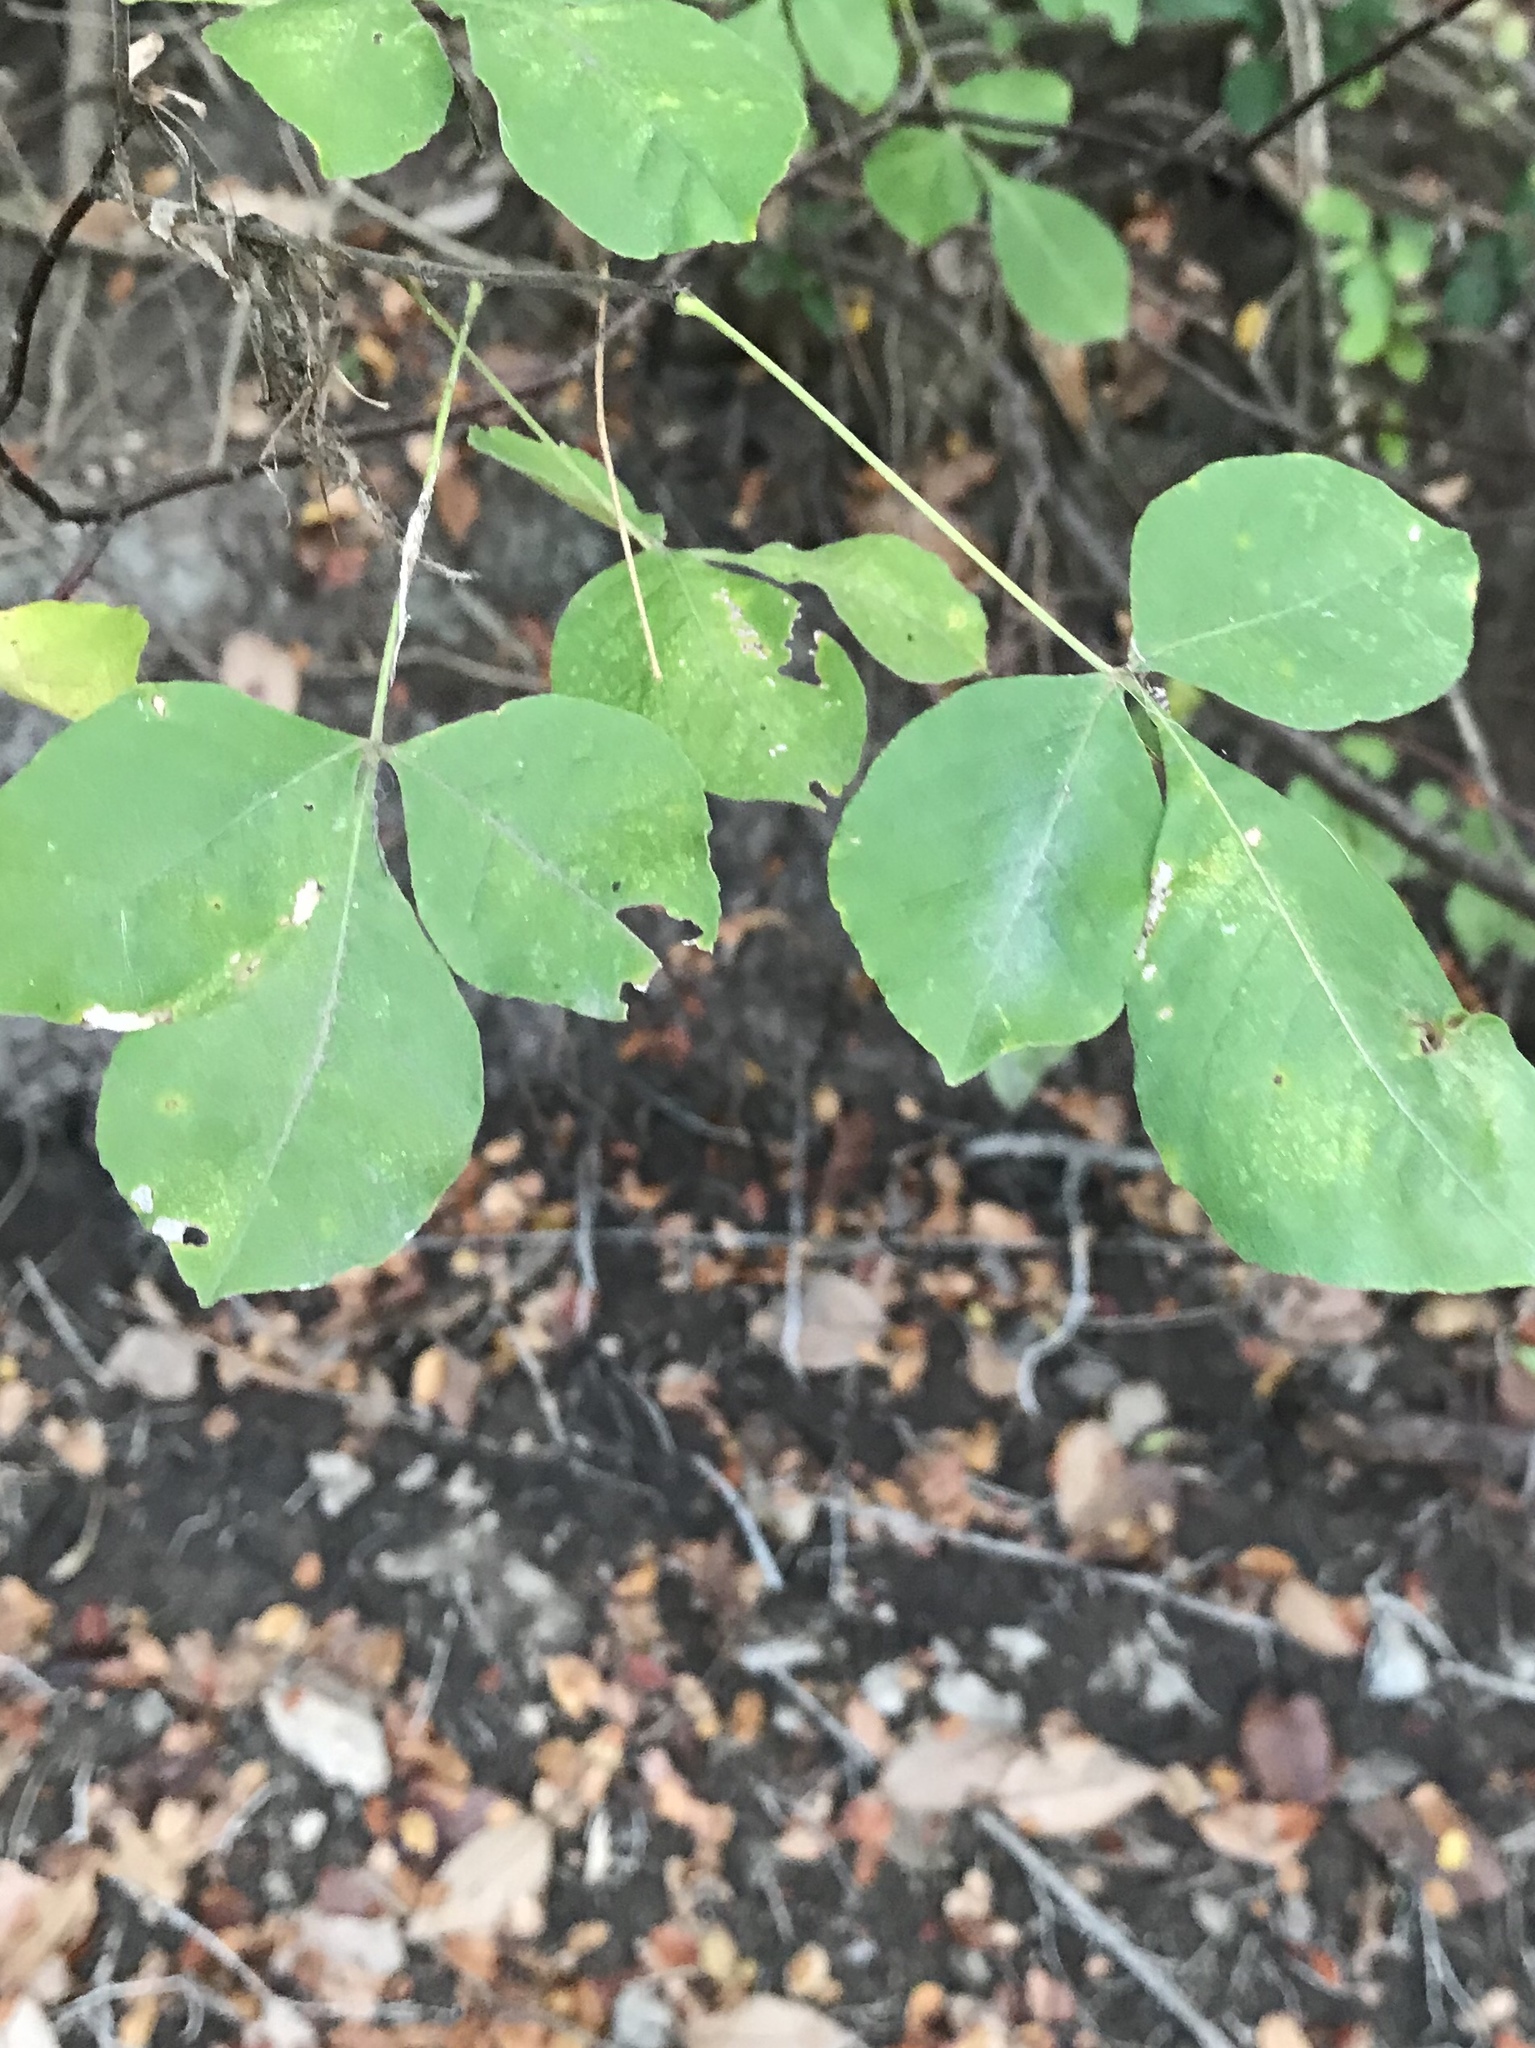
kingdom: Plantae
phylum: Tracheophyta
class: Magnoliopsida
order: Sapindales
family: Rutaceae
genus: Ptelea
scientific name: Ptelea trifoliata
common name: Common hop-tree
